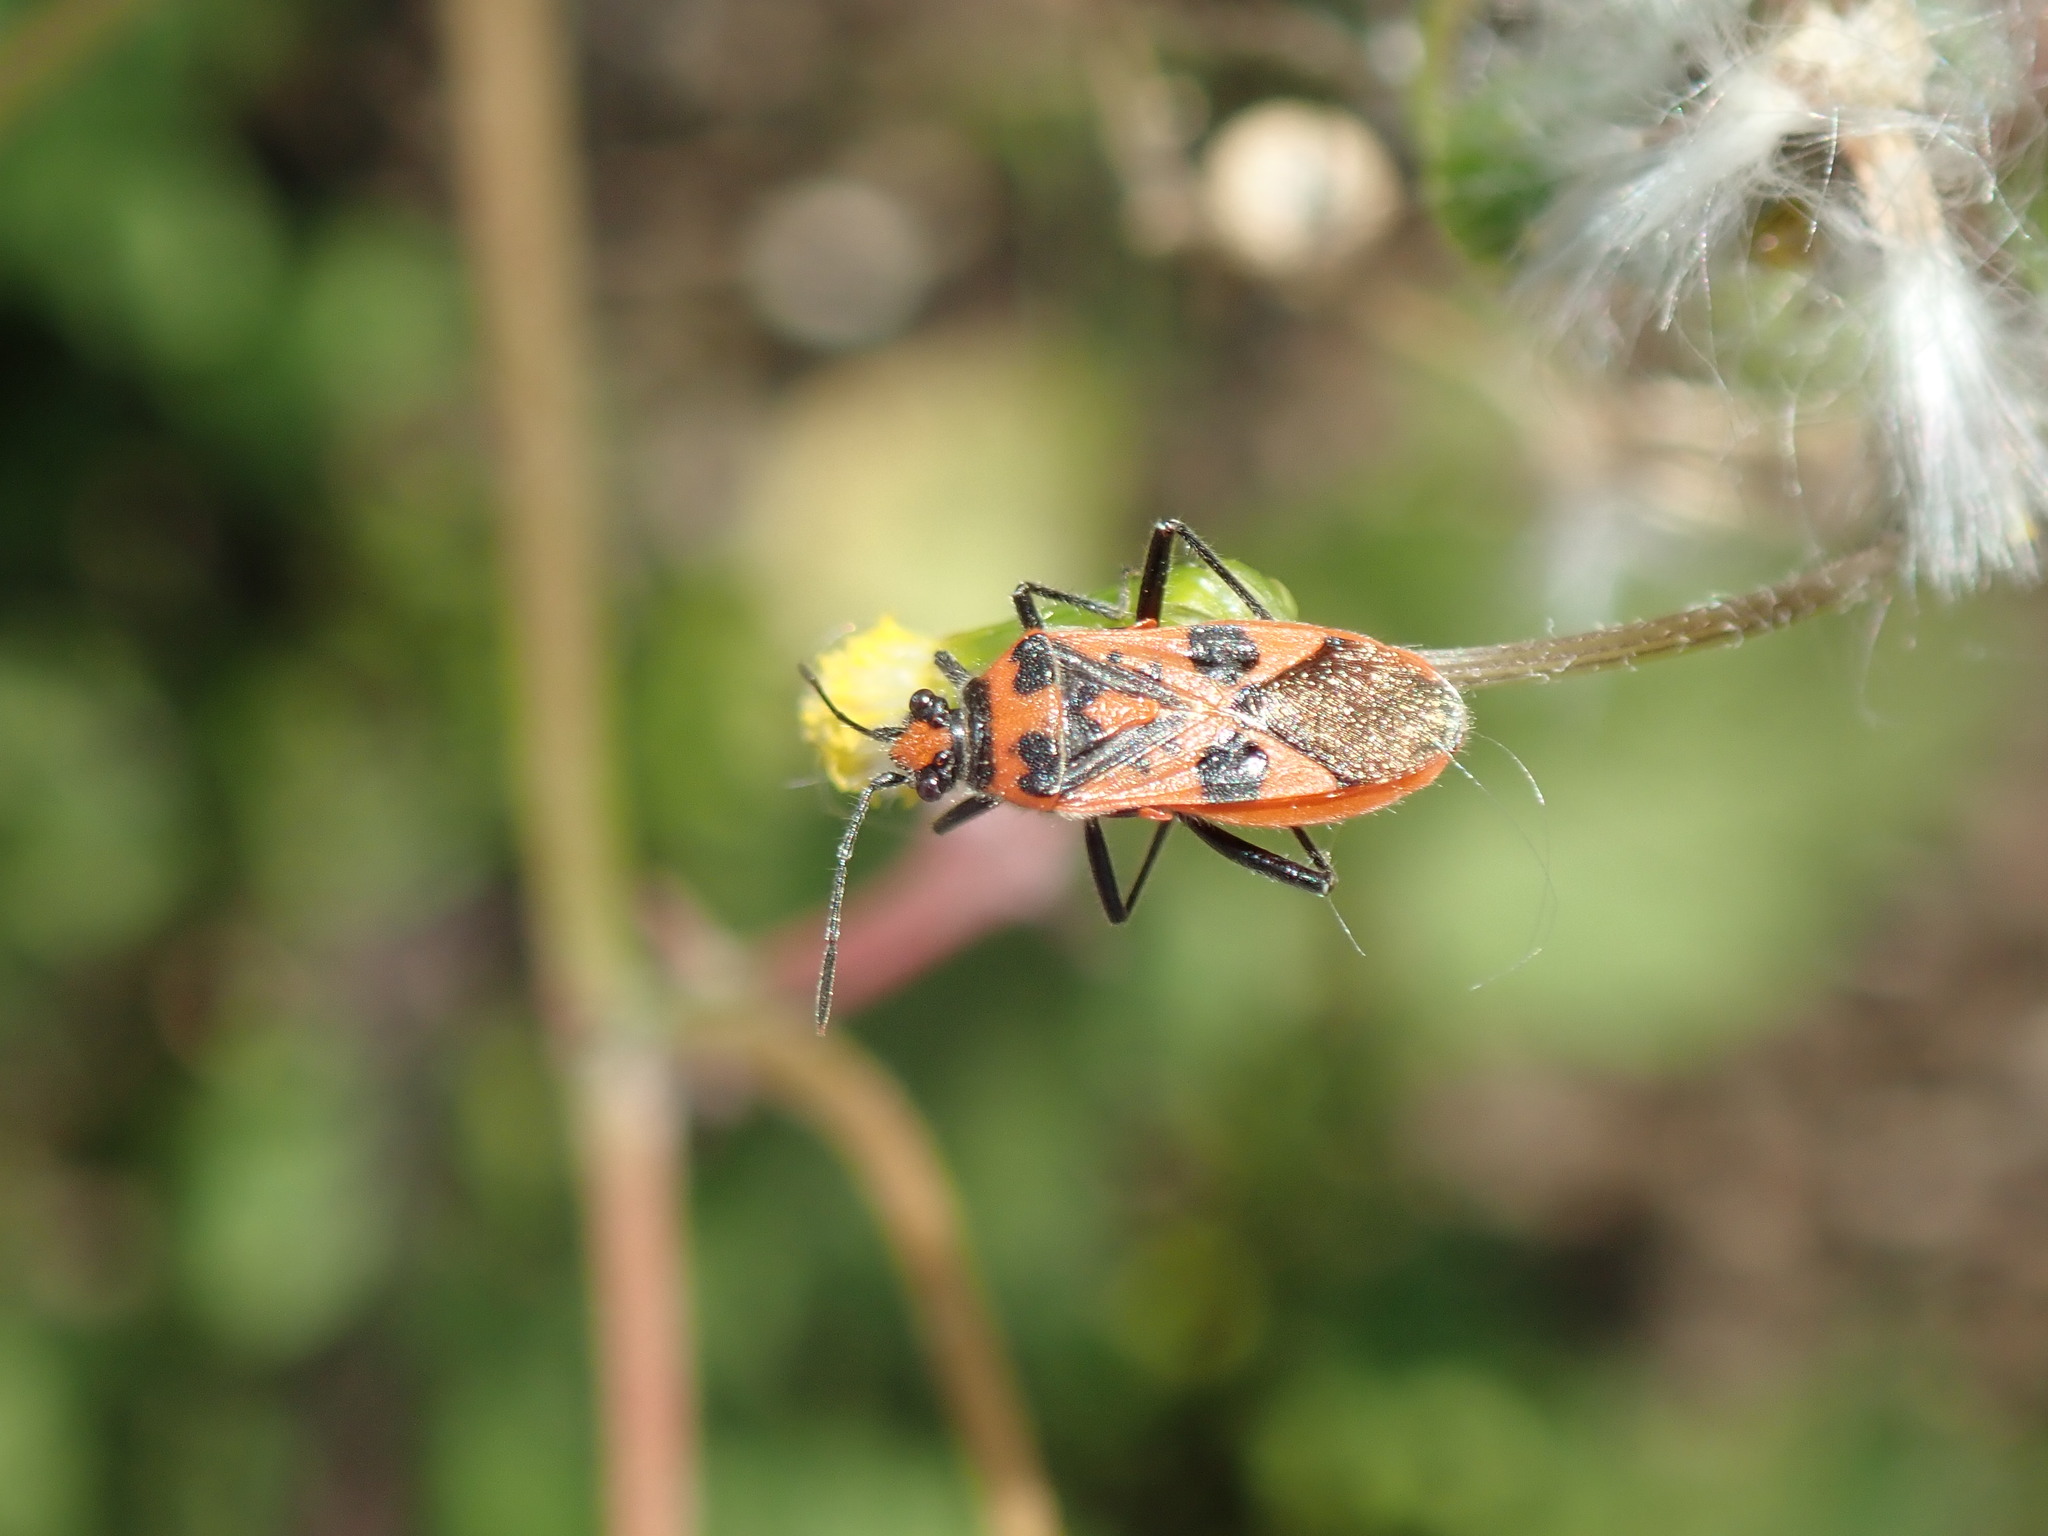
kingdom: Animalia
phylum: Arthropoda
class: Insecta
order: Hemiptera
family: Rhopalidae
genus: Corizus
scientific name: Corizus hyoscyami
